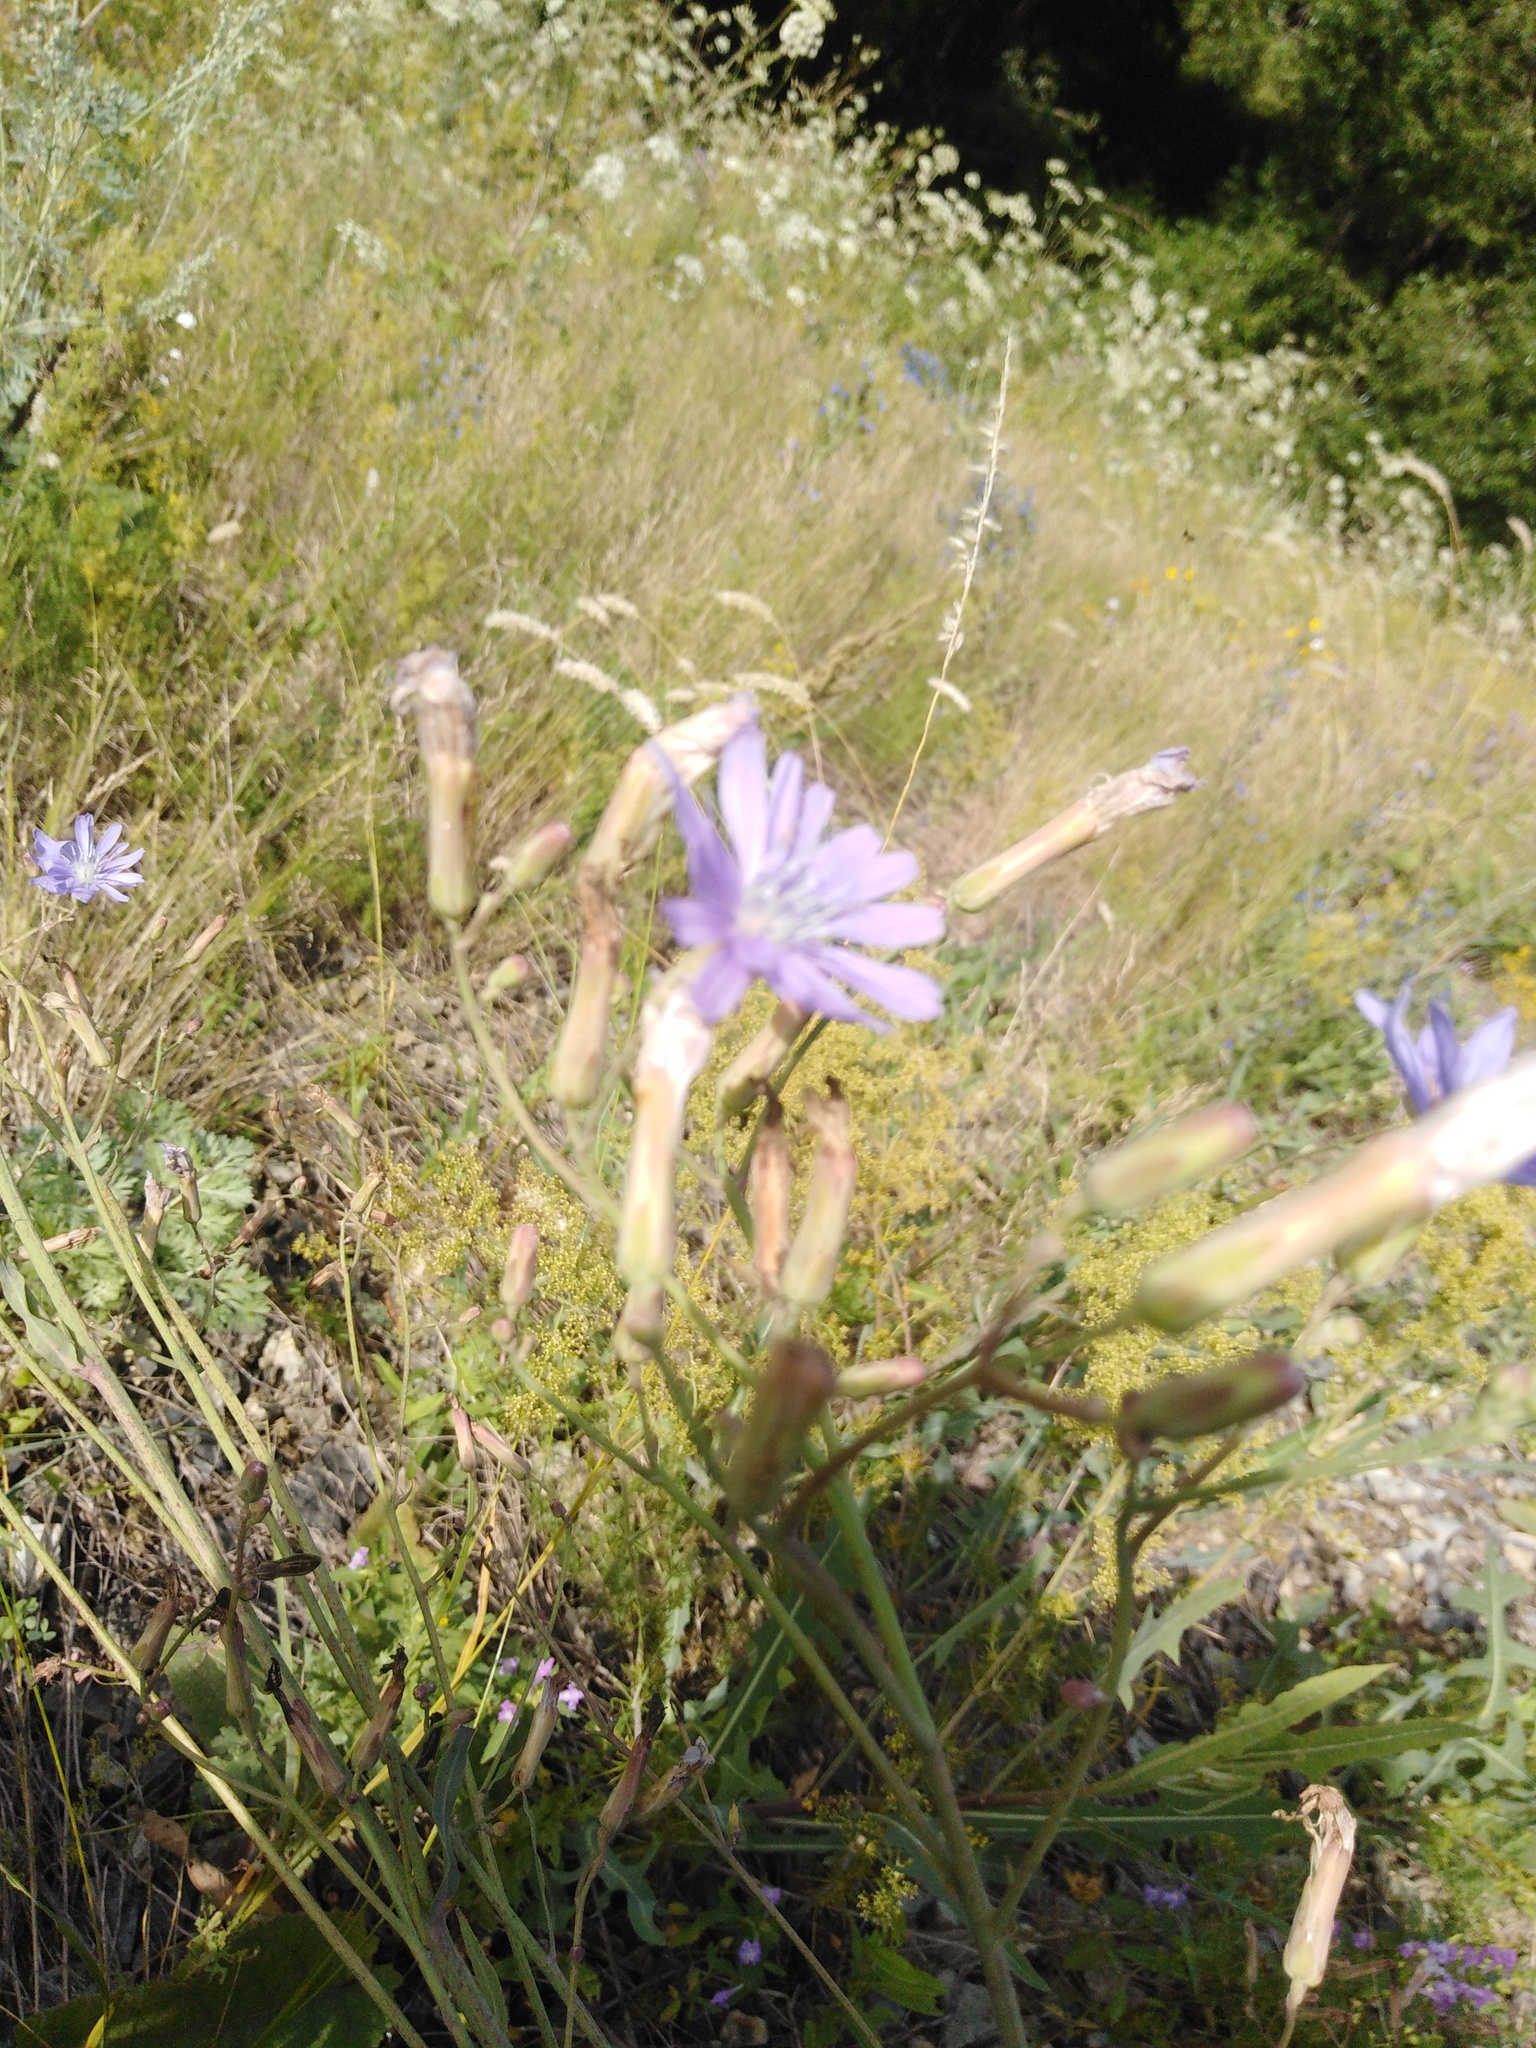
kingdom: Plantae
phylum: Tracheophyta
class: Magnoliopsida
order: Asterales
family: Asteraceae
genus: Lactuca
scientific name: Lactuca tatarica
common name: Blue lettuce
